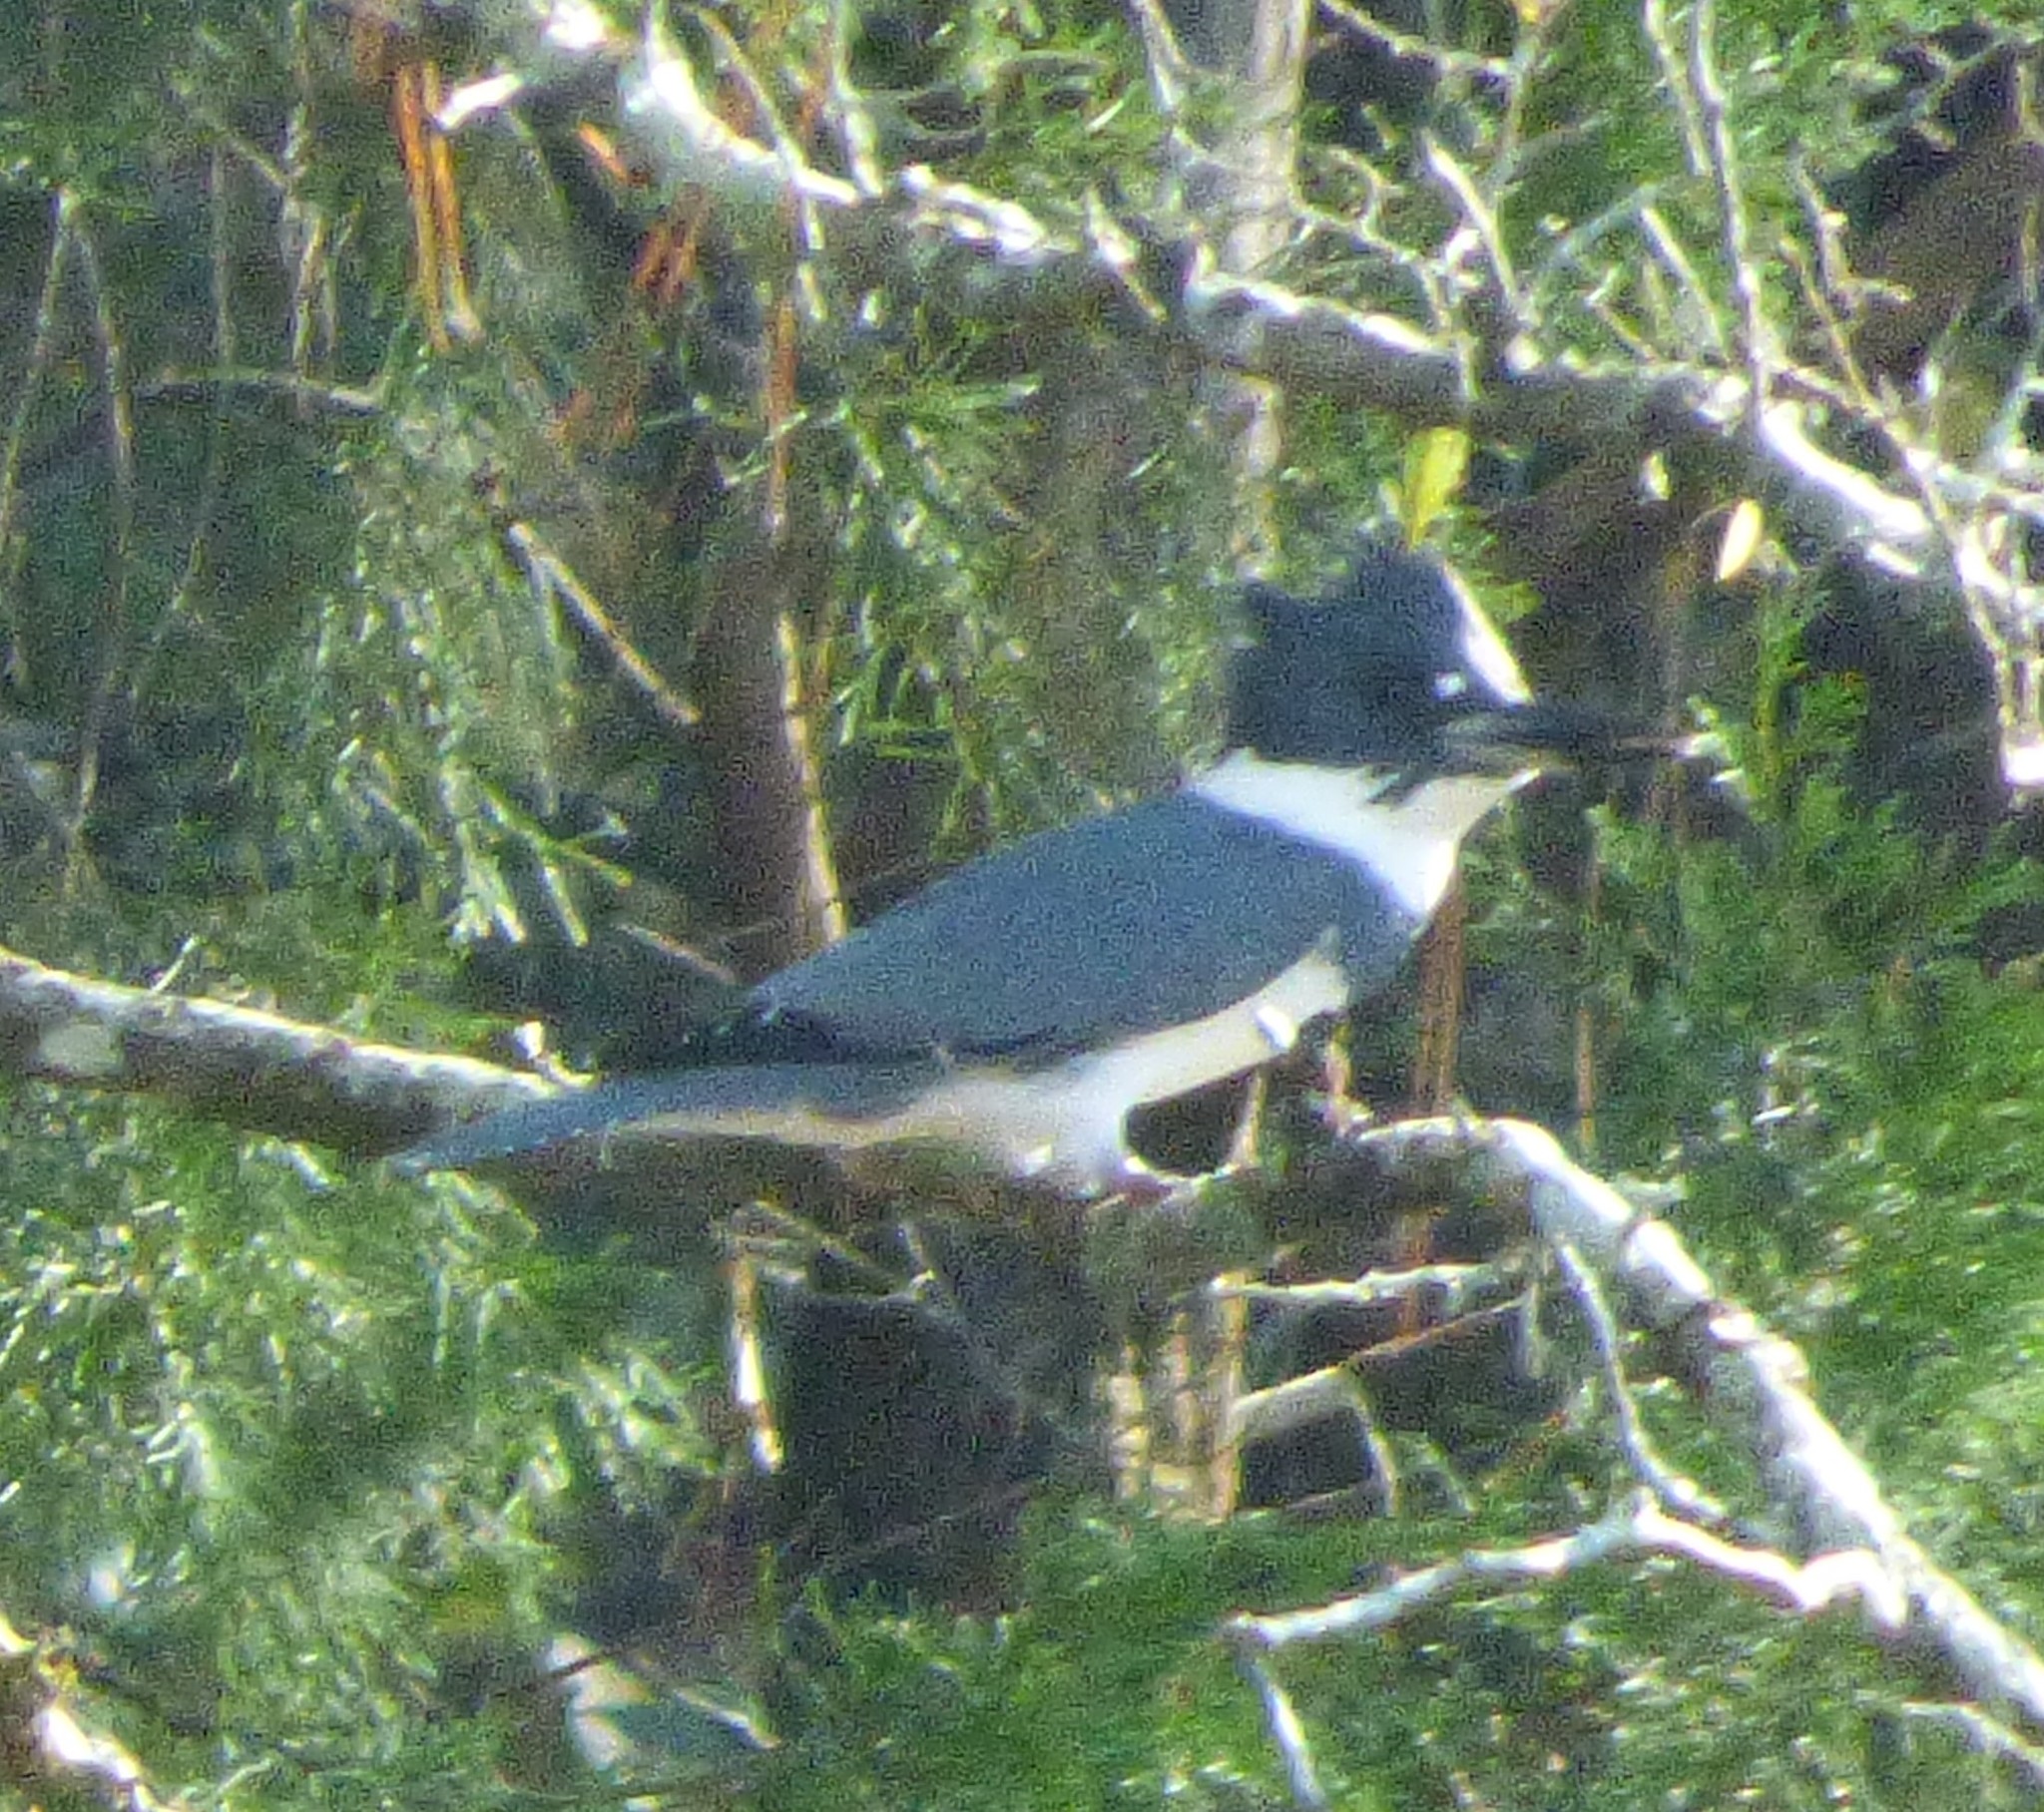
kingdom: Animalia
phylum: Chordata
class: Aves
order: Coraciiformes
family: Alcedinidae
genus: Megaceryle
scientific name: Megaceryle alcyon
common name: Belted kingfisher
